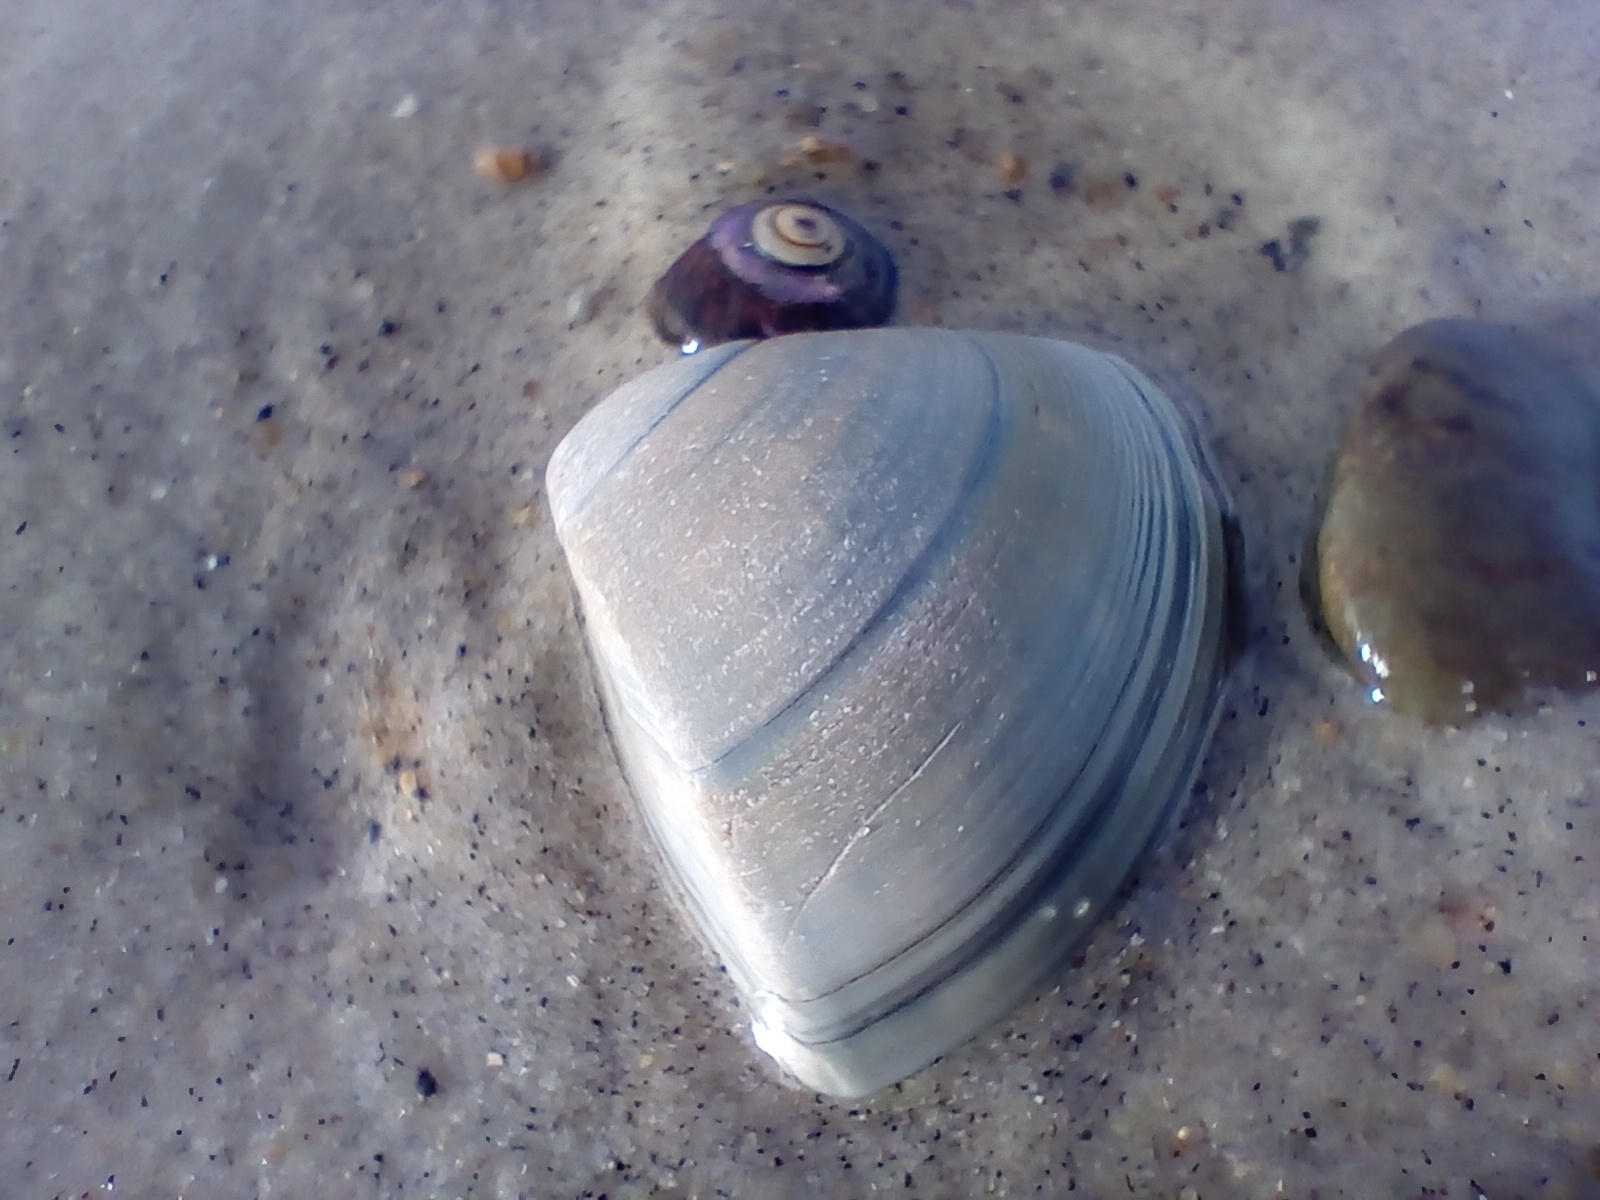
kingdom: Animalia
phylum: Mollusca
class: Bivalvia
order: Venerida
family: Mactridae
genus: Crassula
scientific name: Crassula aequilatera
